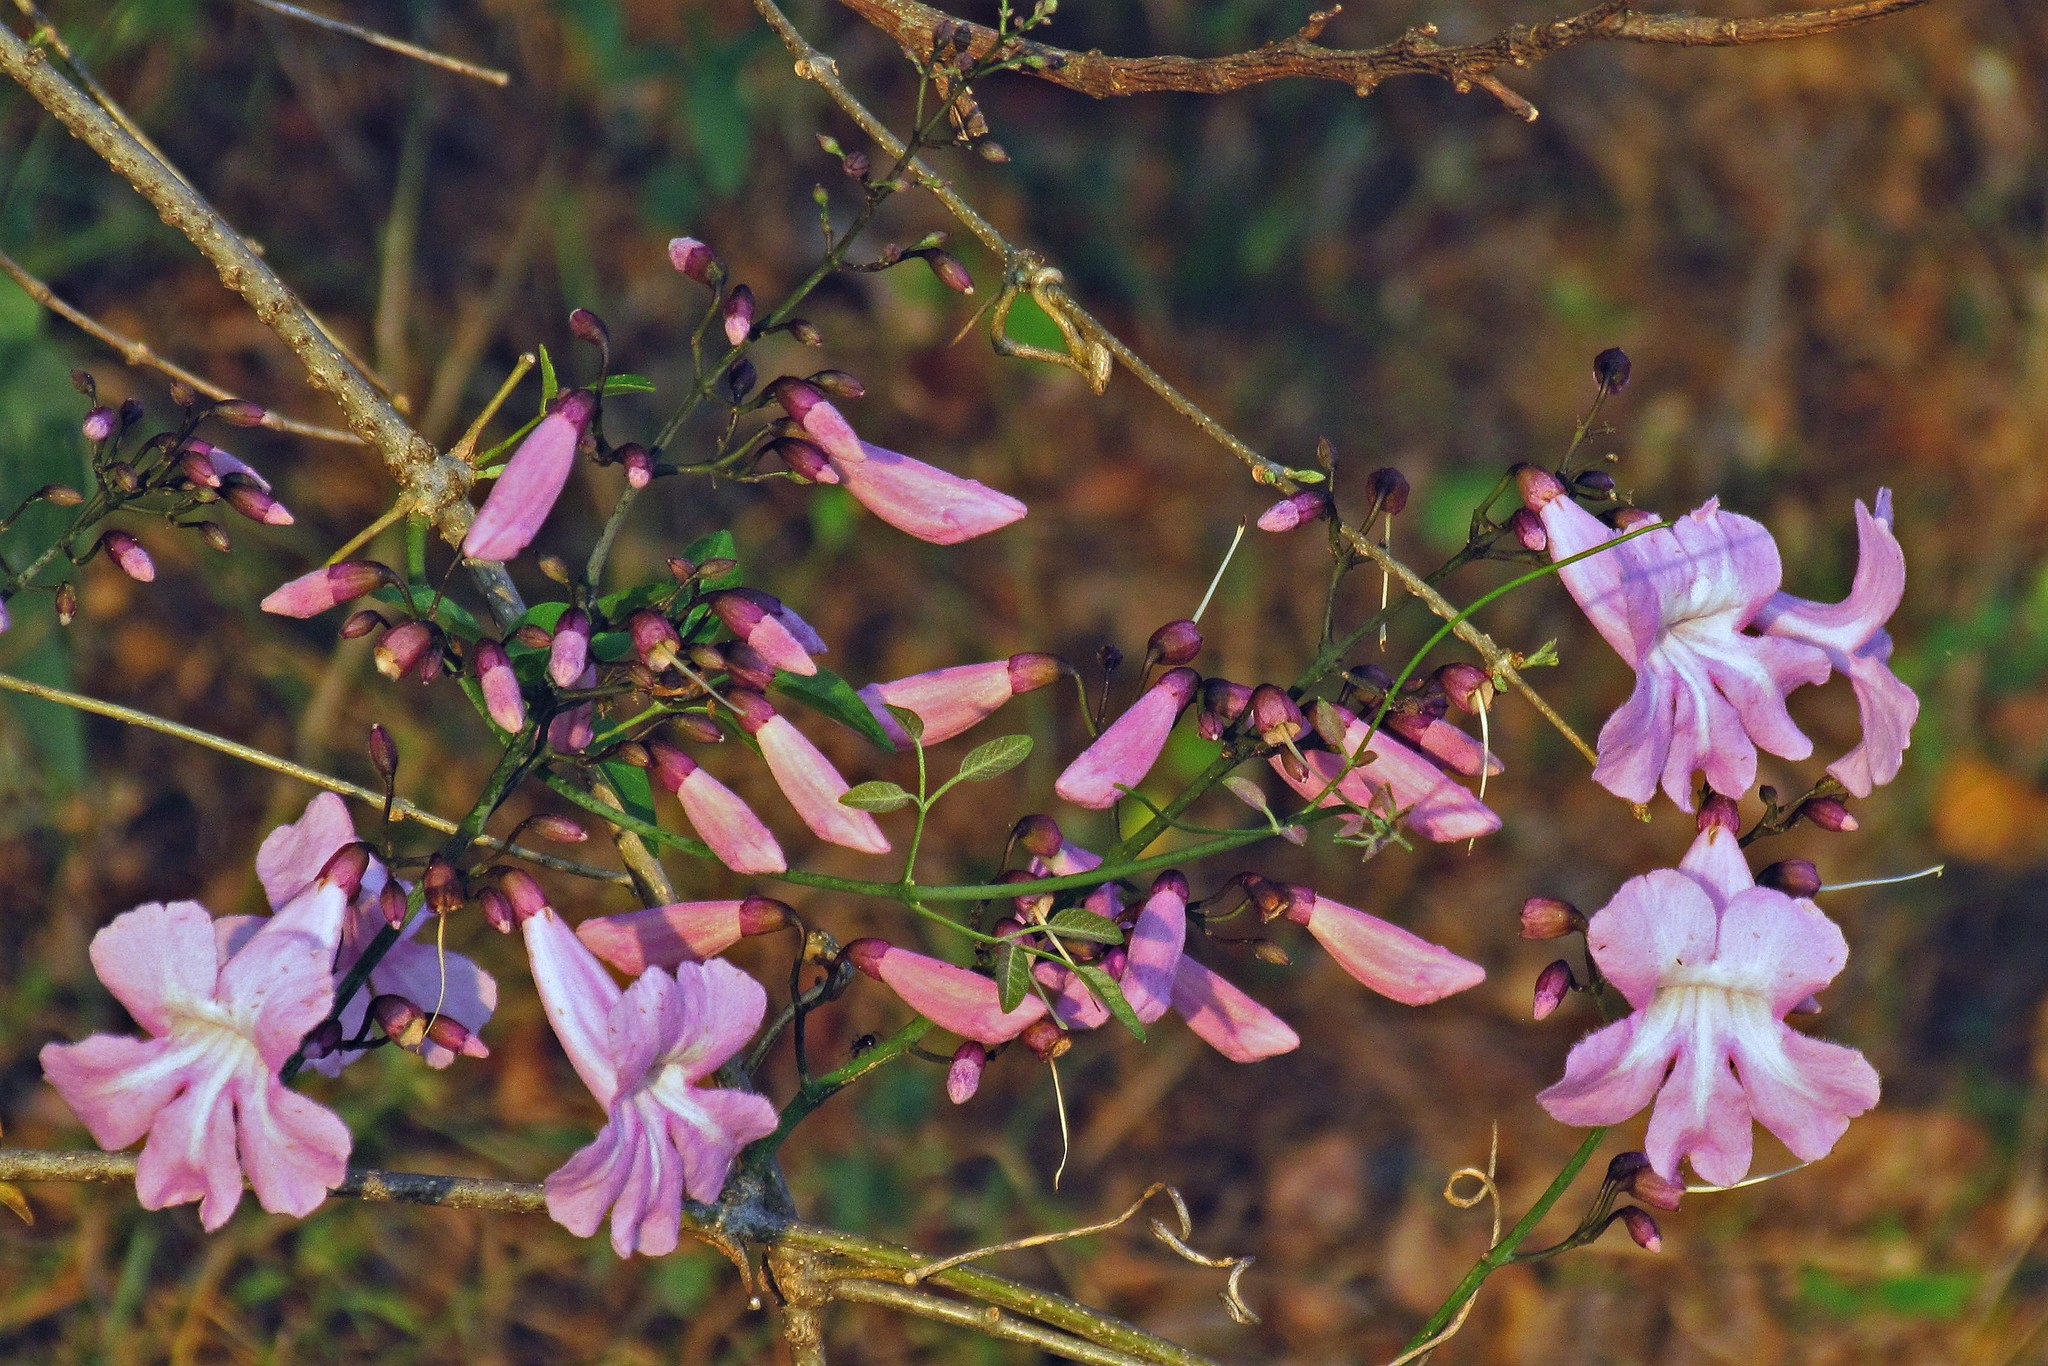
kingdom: Plantae
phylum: Tracheophyta
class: Magnoliopsida
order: Lamiales
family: Bignoniaceae
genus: Tanaecium
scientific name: Tanaecium dichotomum
